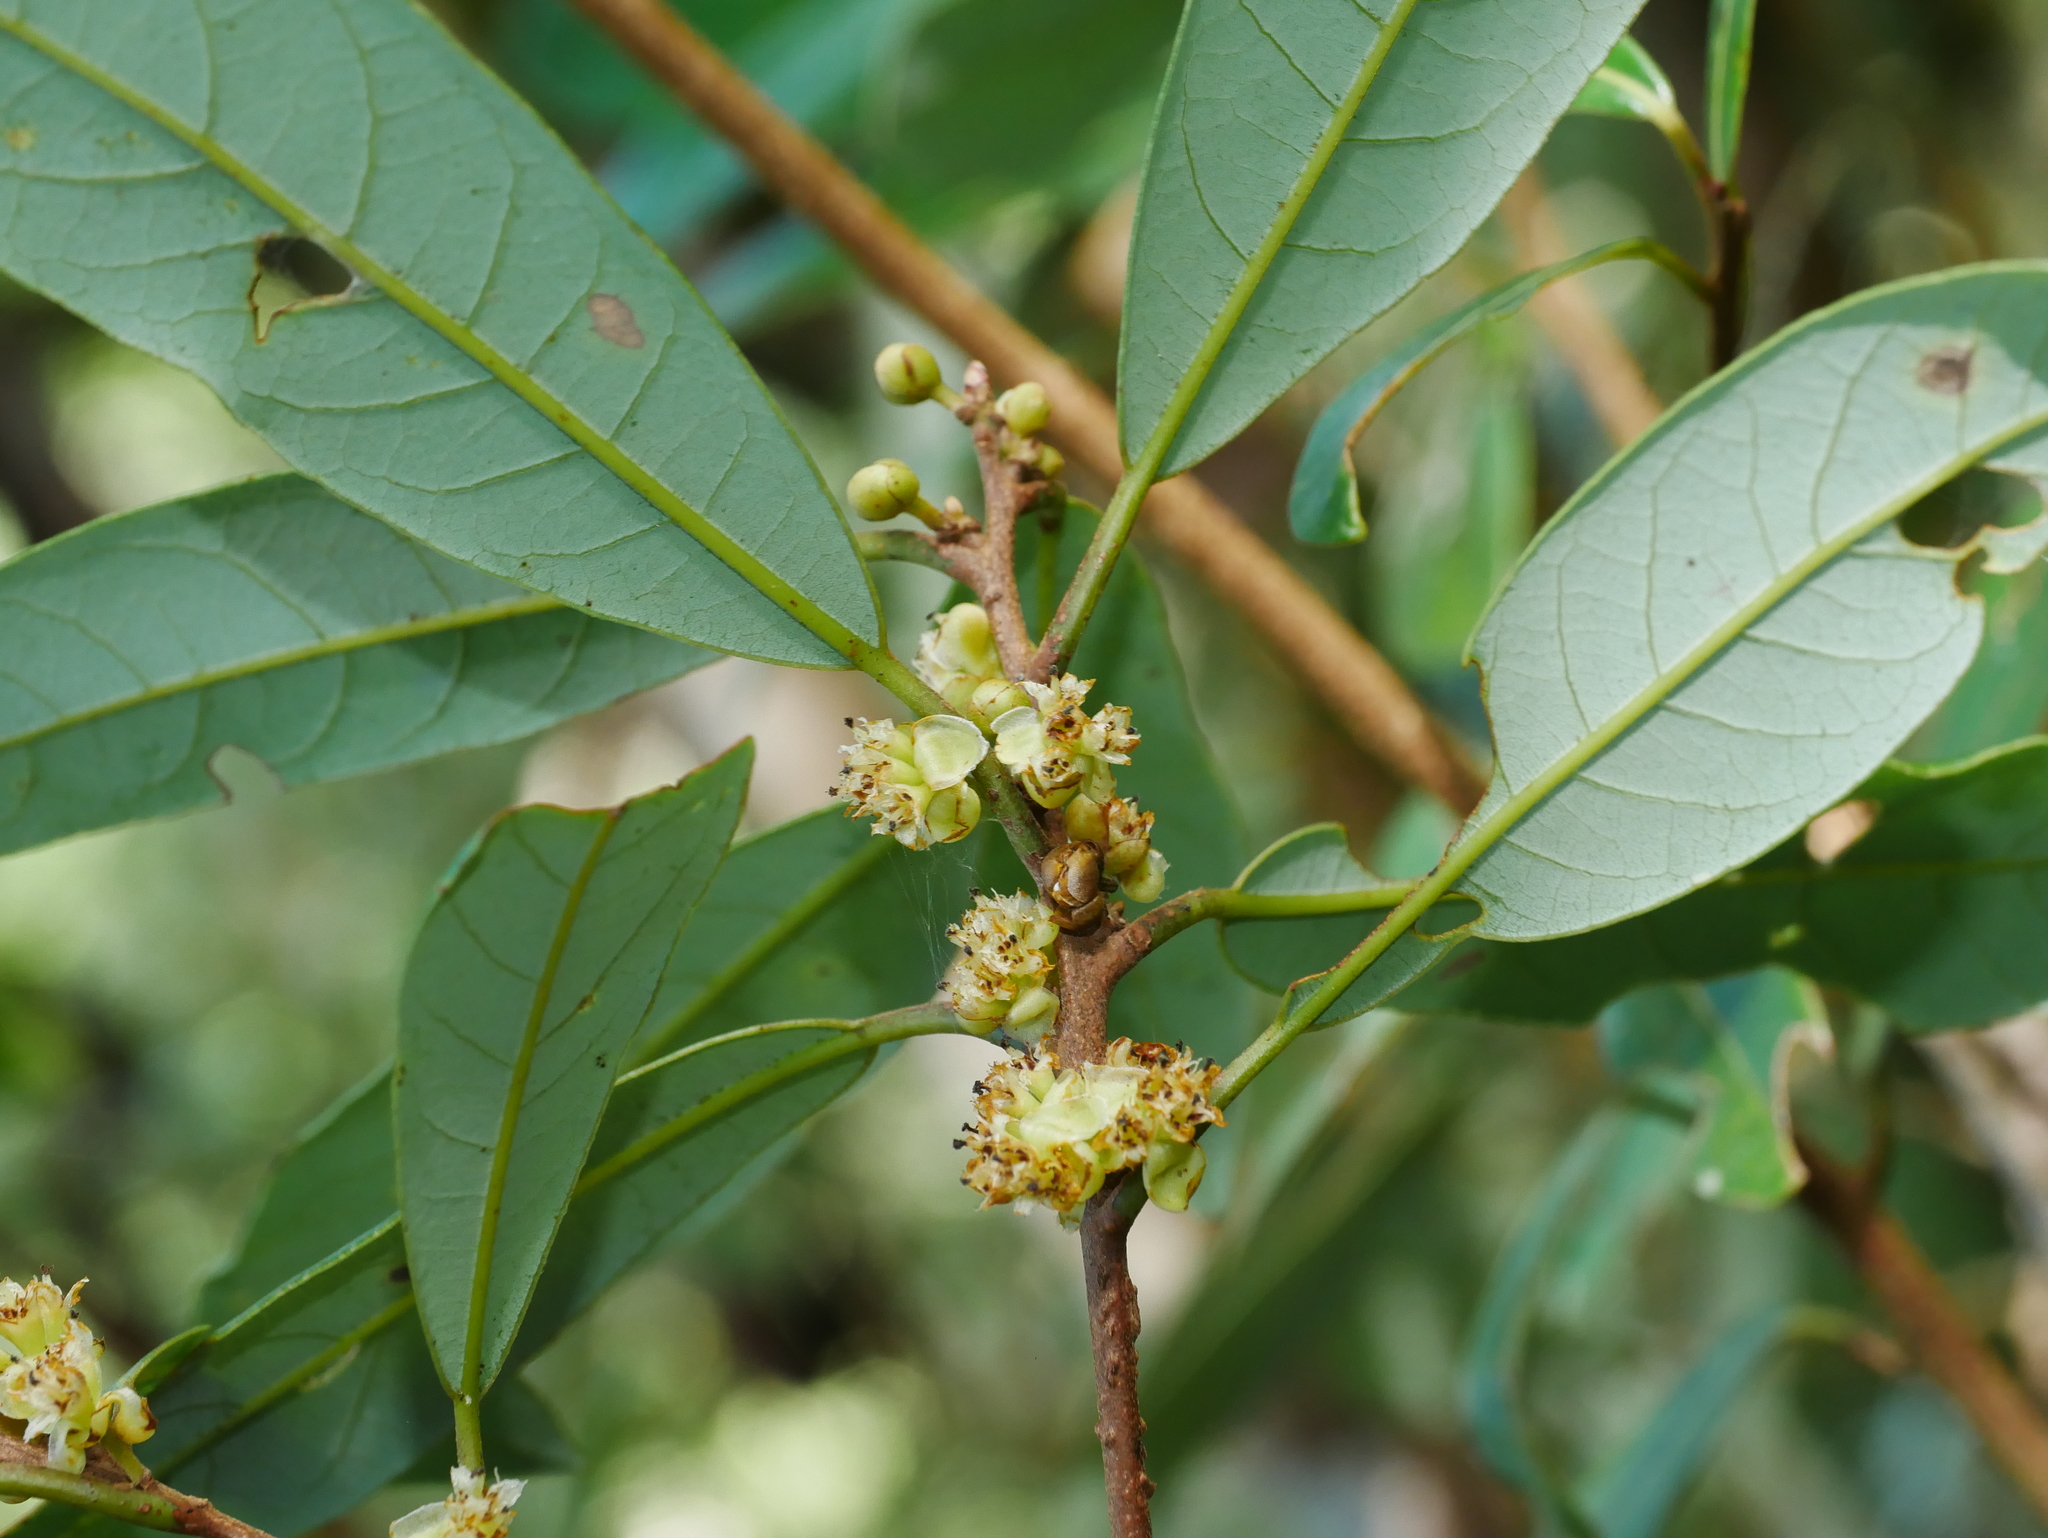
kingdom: Plantae
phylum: Tracheophyta
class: Magnoliopsida
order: Laurales
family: Lauraceae
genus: Litsea
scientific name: Litsea morrisonensis
